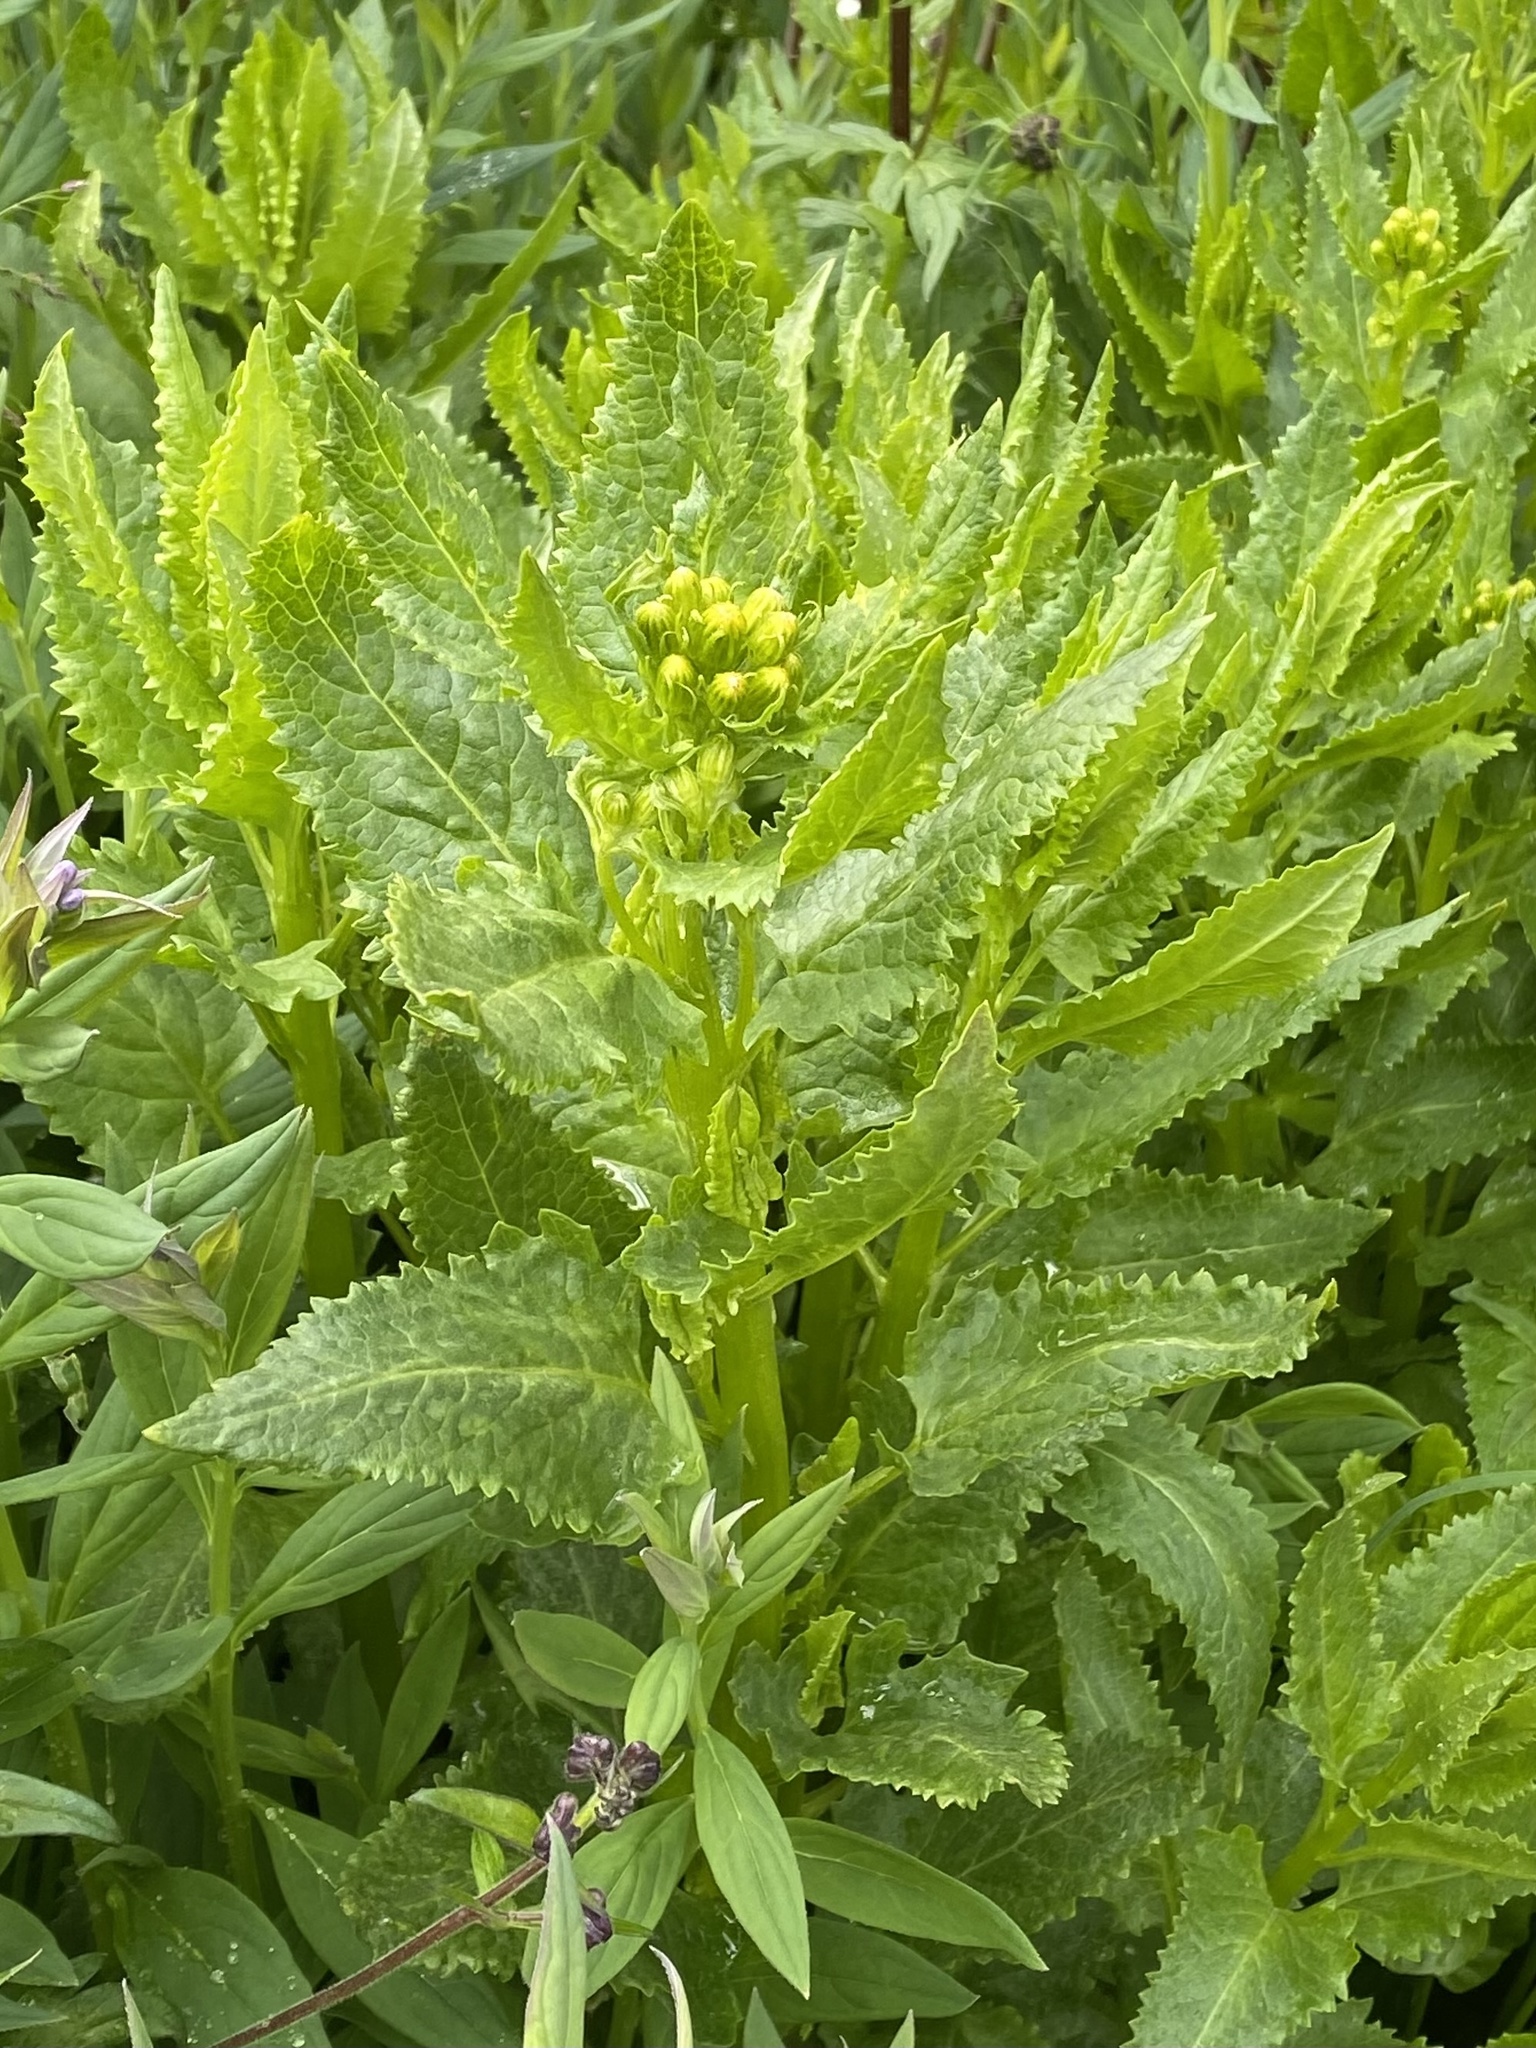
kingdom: Plantae
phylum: Tracheophyta
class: Magnoliopsida
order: Asterales
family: Asteraceae
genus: Senecio
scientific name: Senecio triangularis
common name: Arrowleaf butterweed
